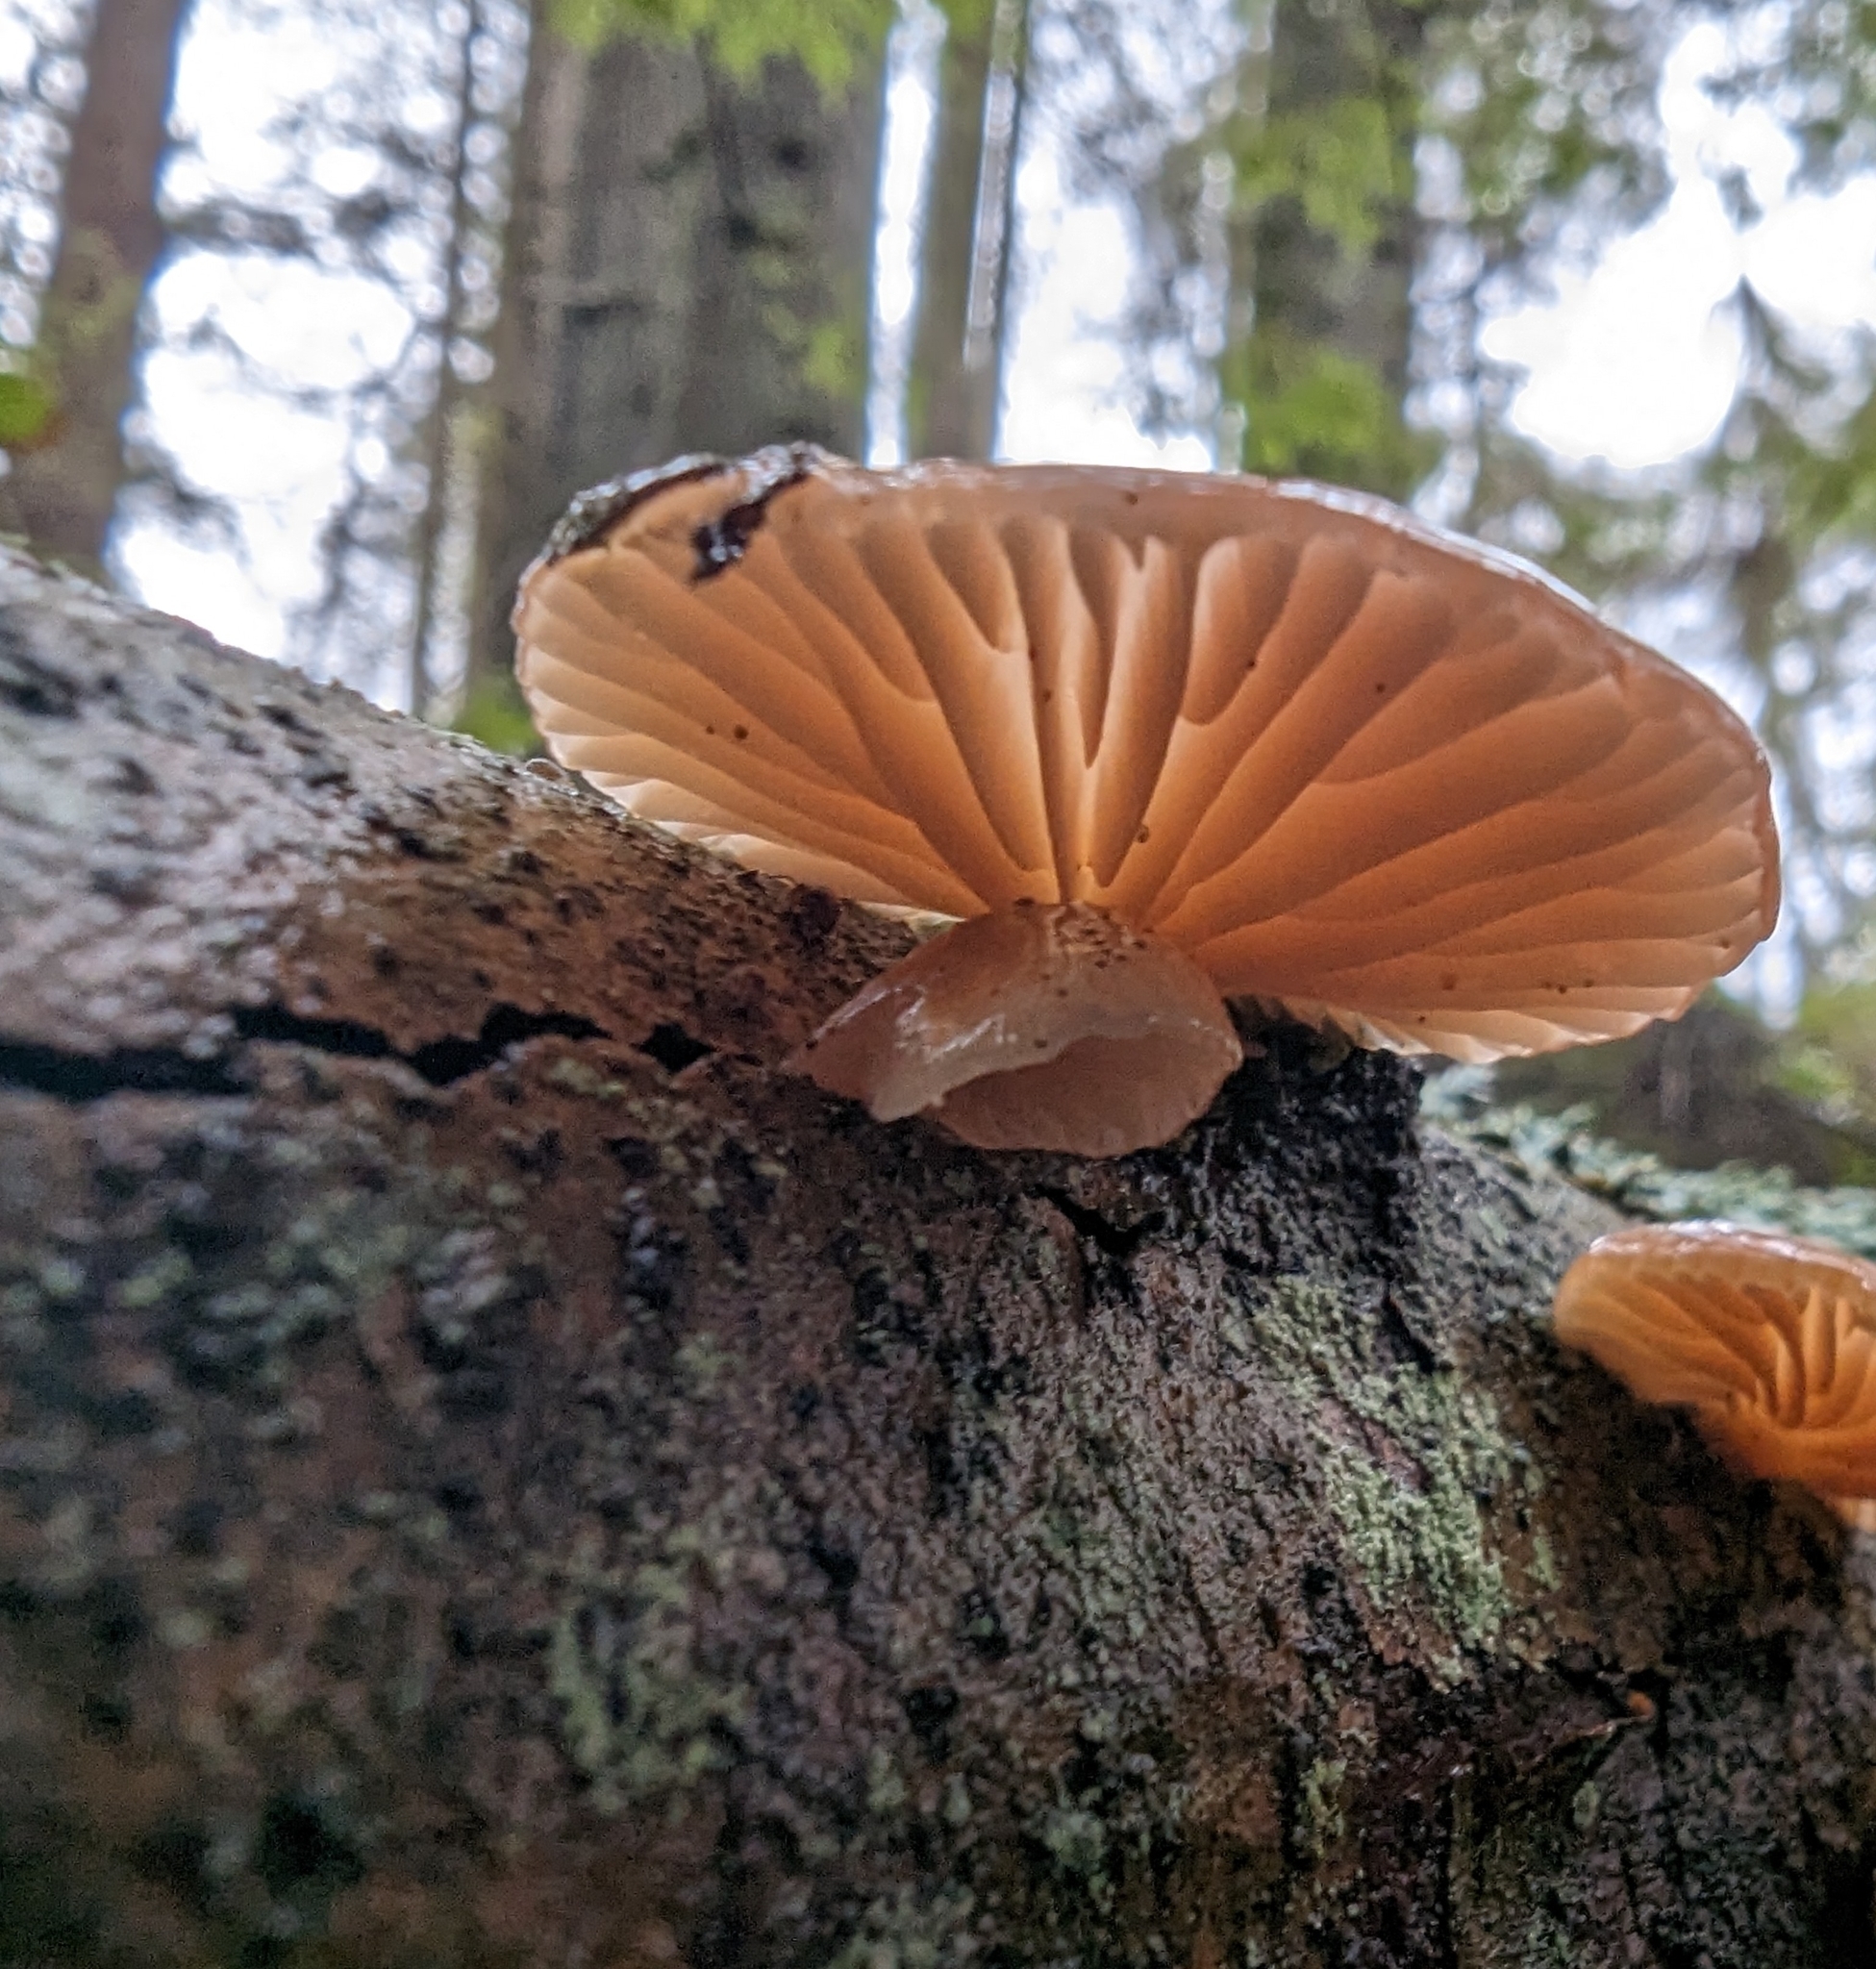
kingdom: Fungi
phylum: Basidiomycota
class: Agaricomycetes
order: Agaricales
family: Mycenaceae
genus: Panellus
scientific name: Panellus longinquus
